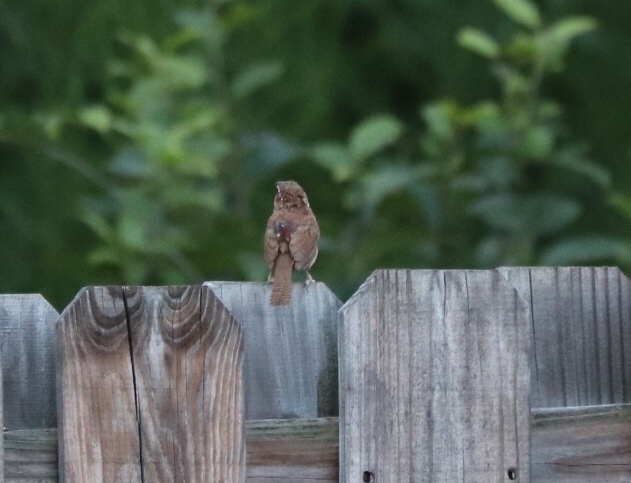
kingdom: Animalia
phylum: Chordata
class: Aves
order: Passeriformes
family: Troglodytidae
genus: Thryothorus
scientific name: Thryothorus ludovicianus
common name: Carolina wren
